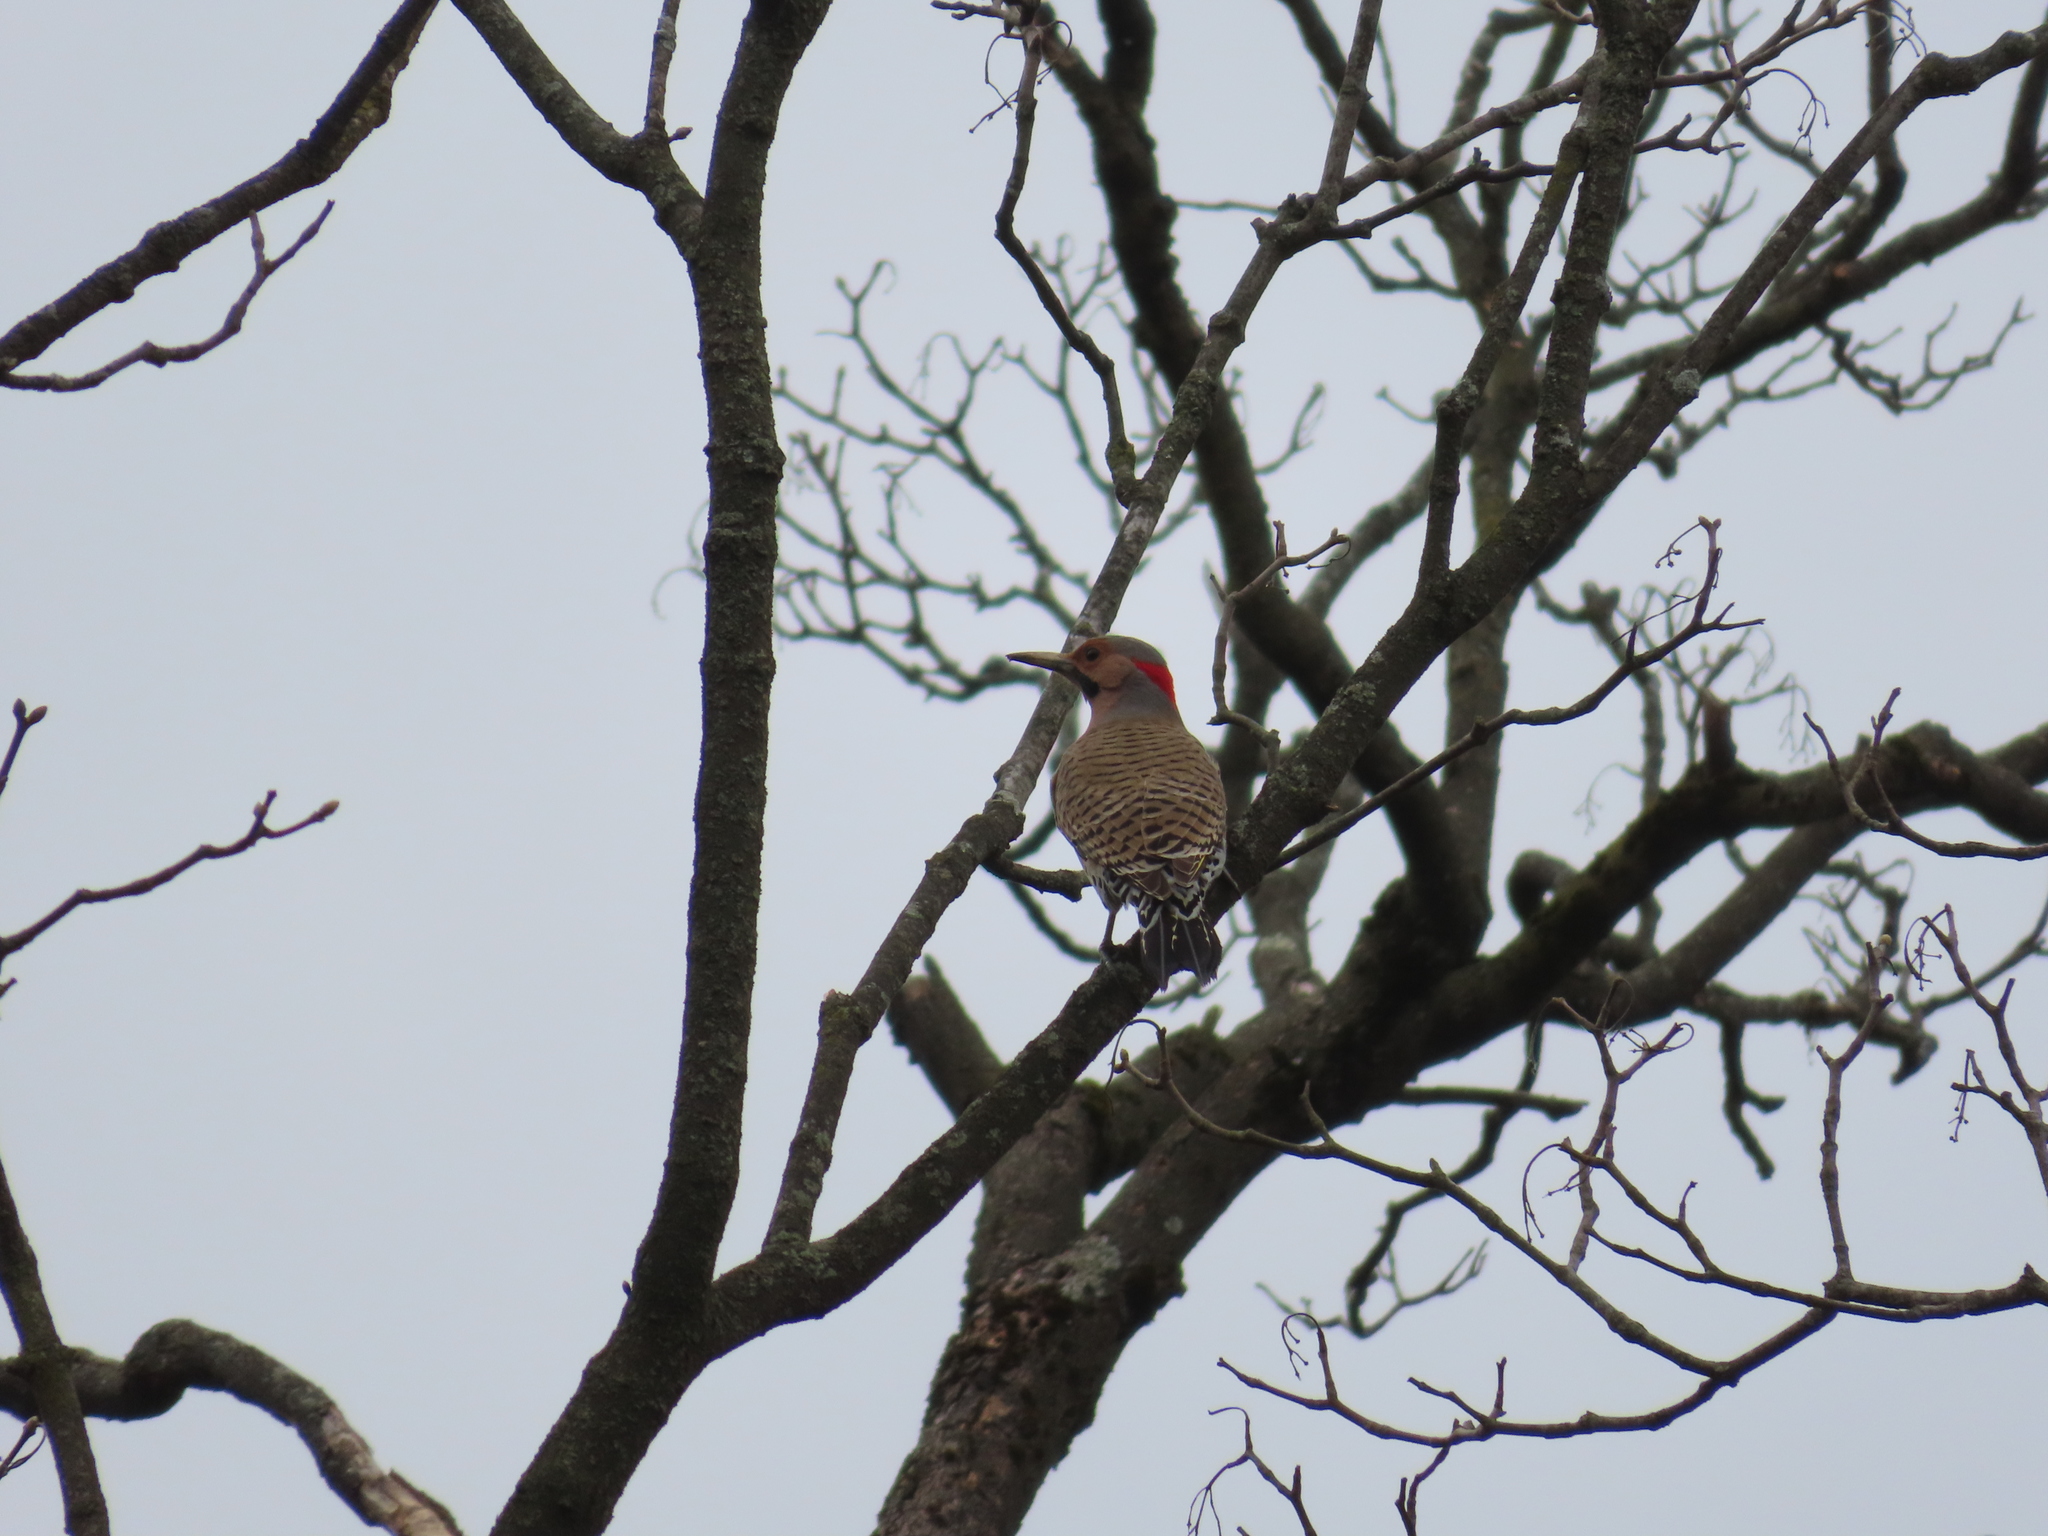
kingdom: Animalia
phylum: Chordata
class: Aves
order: Piciformes
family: Picidae
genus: Colaptes
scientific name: Colaptes auratus
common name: Northern flicker
